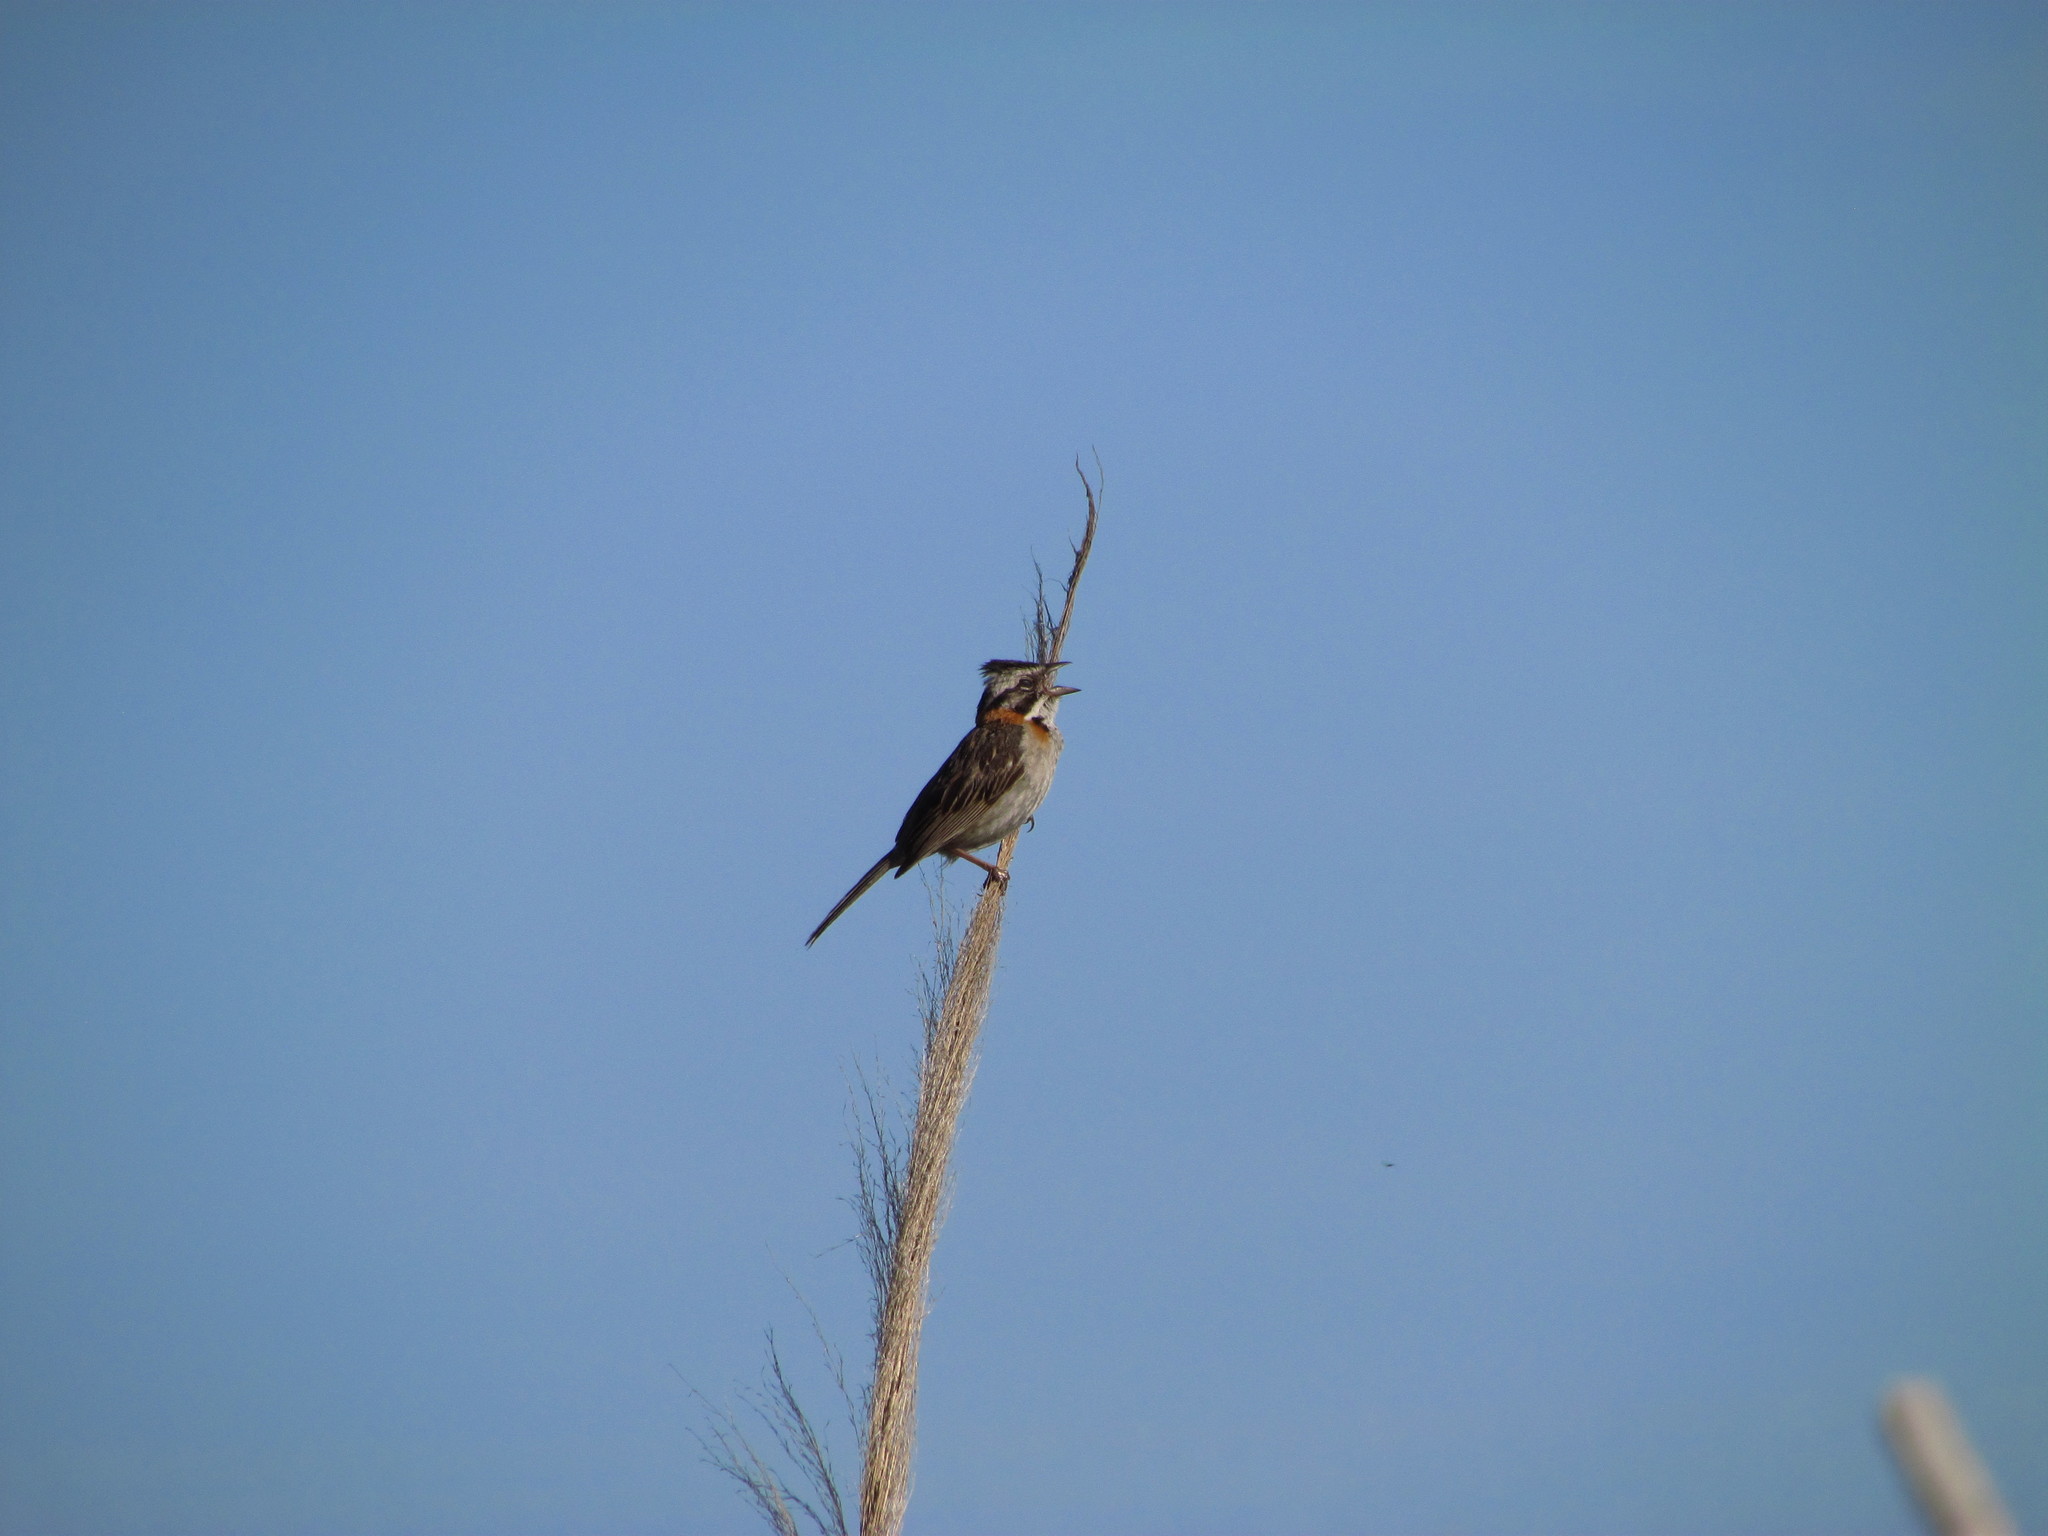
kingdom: Animalia
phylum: Chordata
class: Aves
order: Passeriformes
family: Passerellidae
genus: Zonotrichia
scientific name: Zonotrichia capensis
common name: Rufous-collared sparrow
